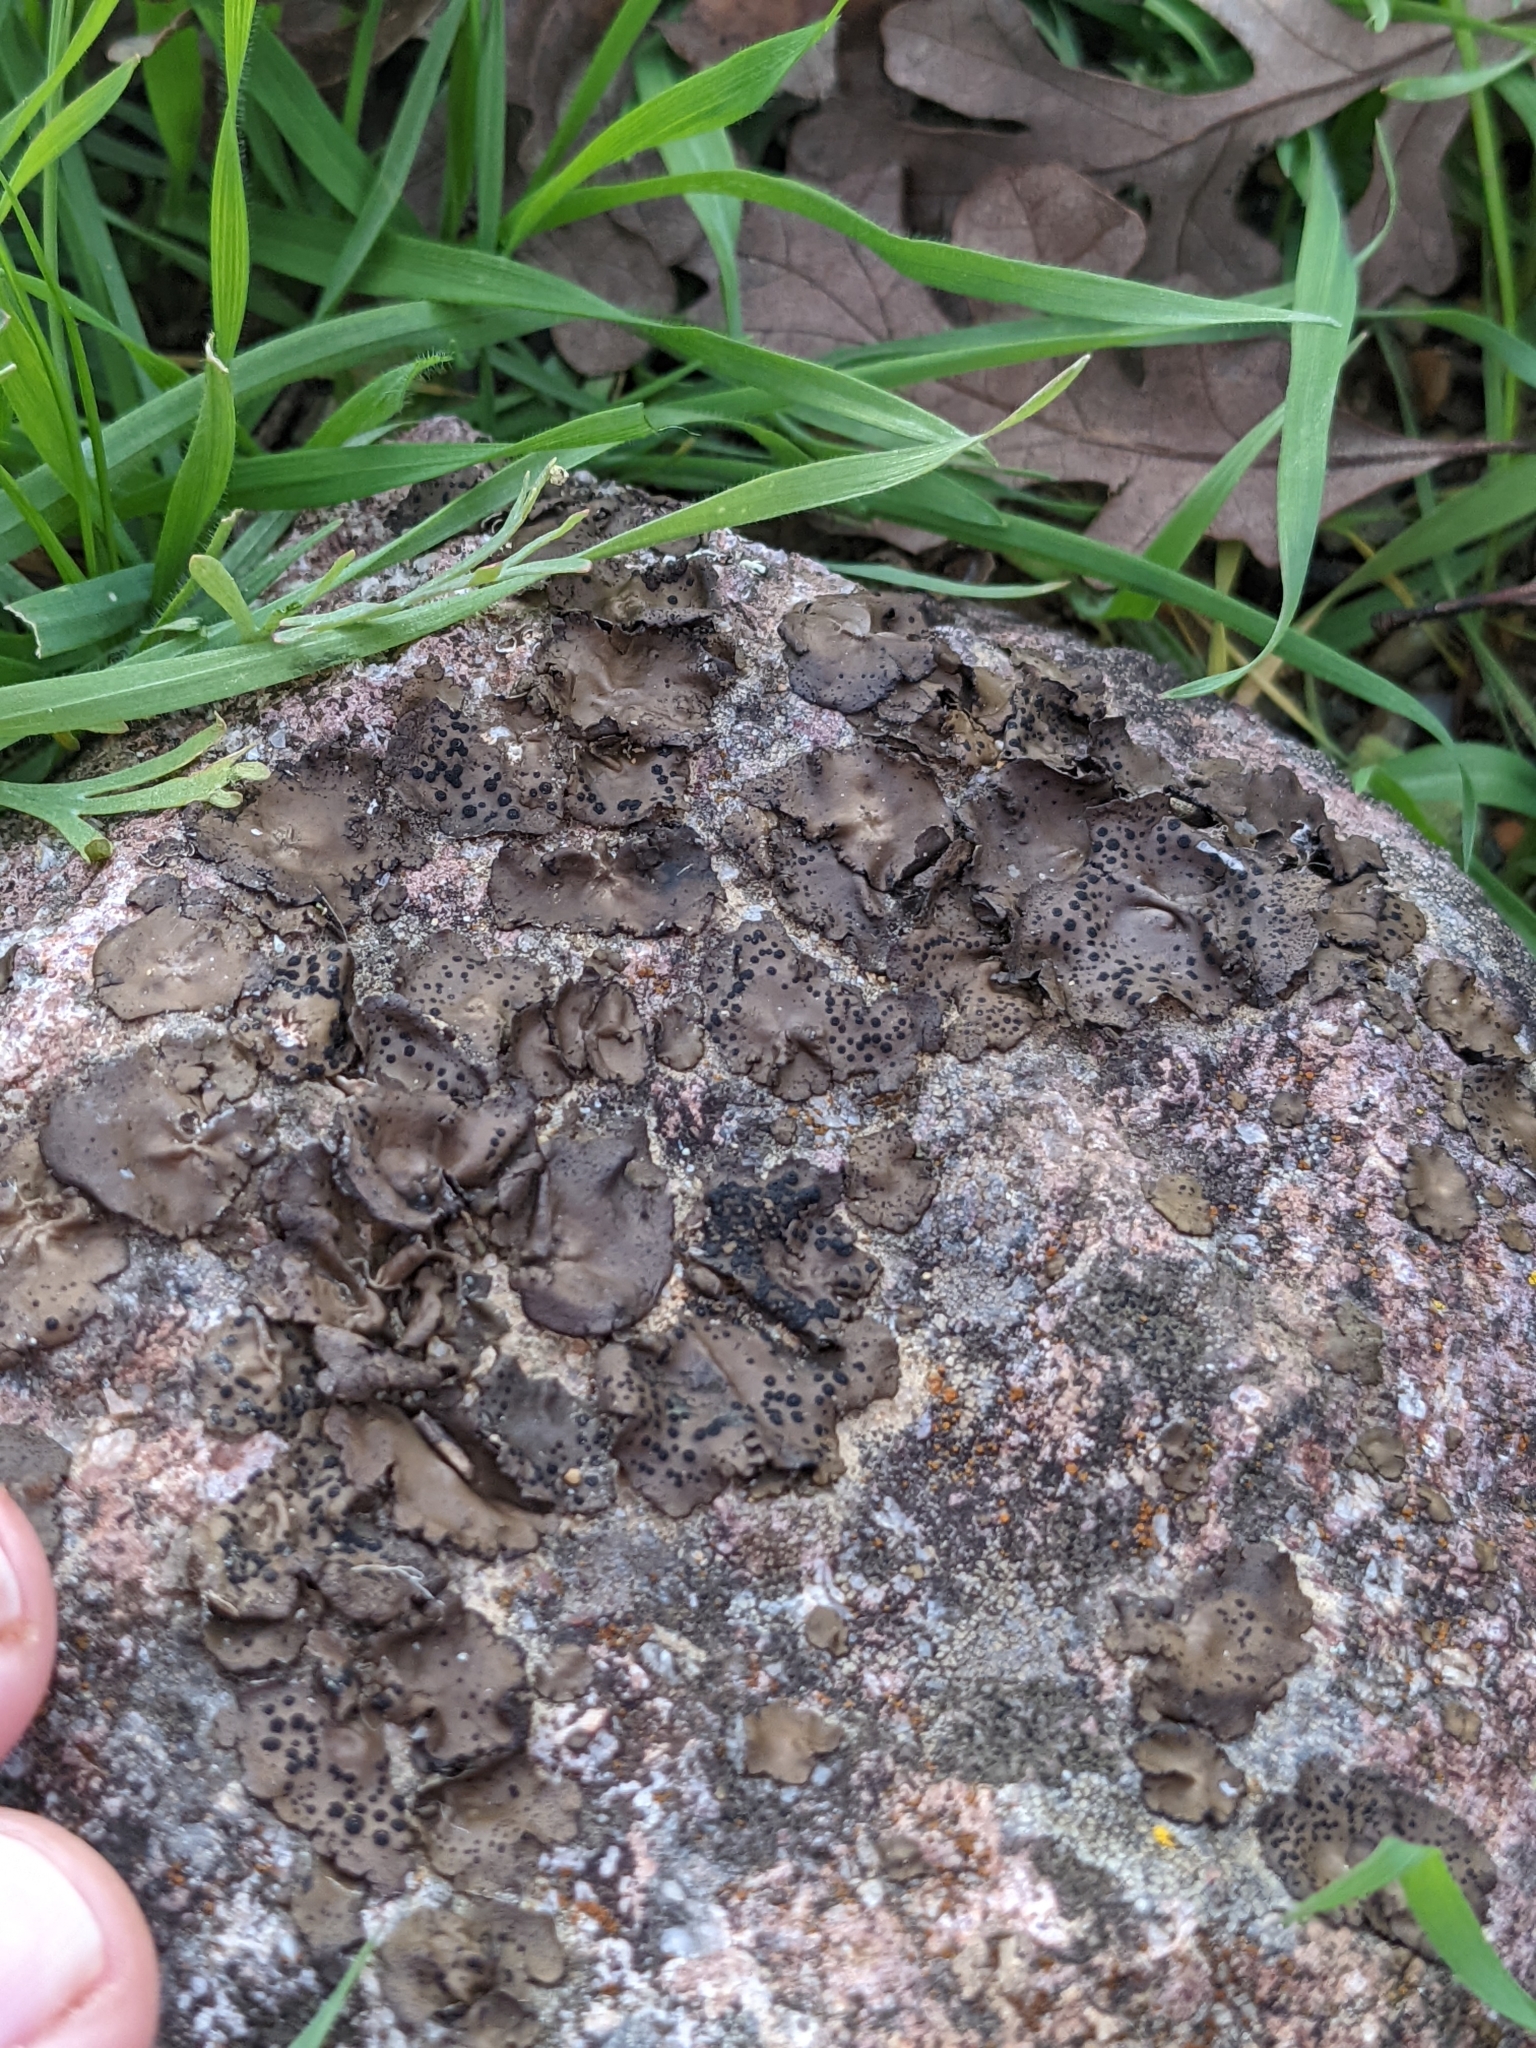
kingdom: Fungi
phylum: Ascomycota
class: Lecanoromycetes
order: Umbilicariales
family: Umbilicariaceae
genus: Umbilicaria
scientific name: Umbilicaria phaea
